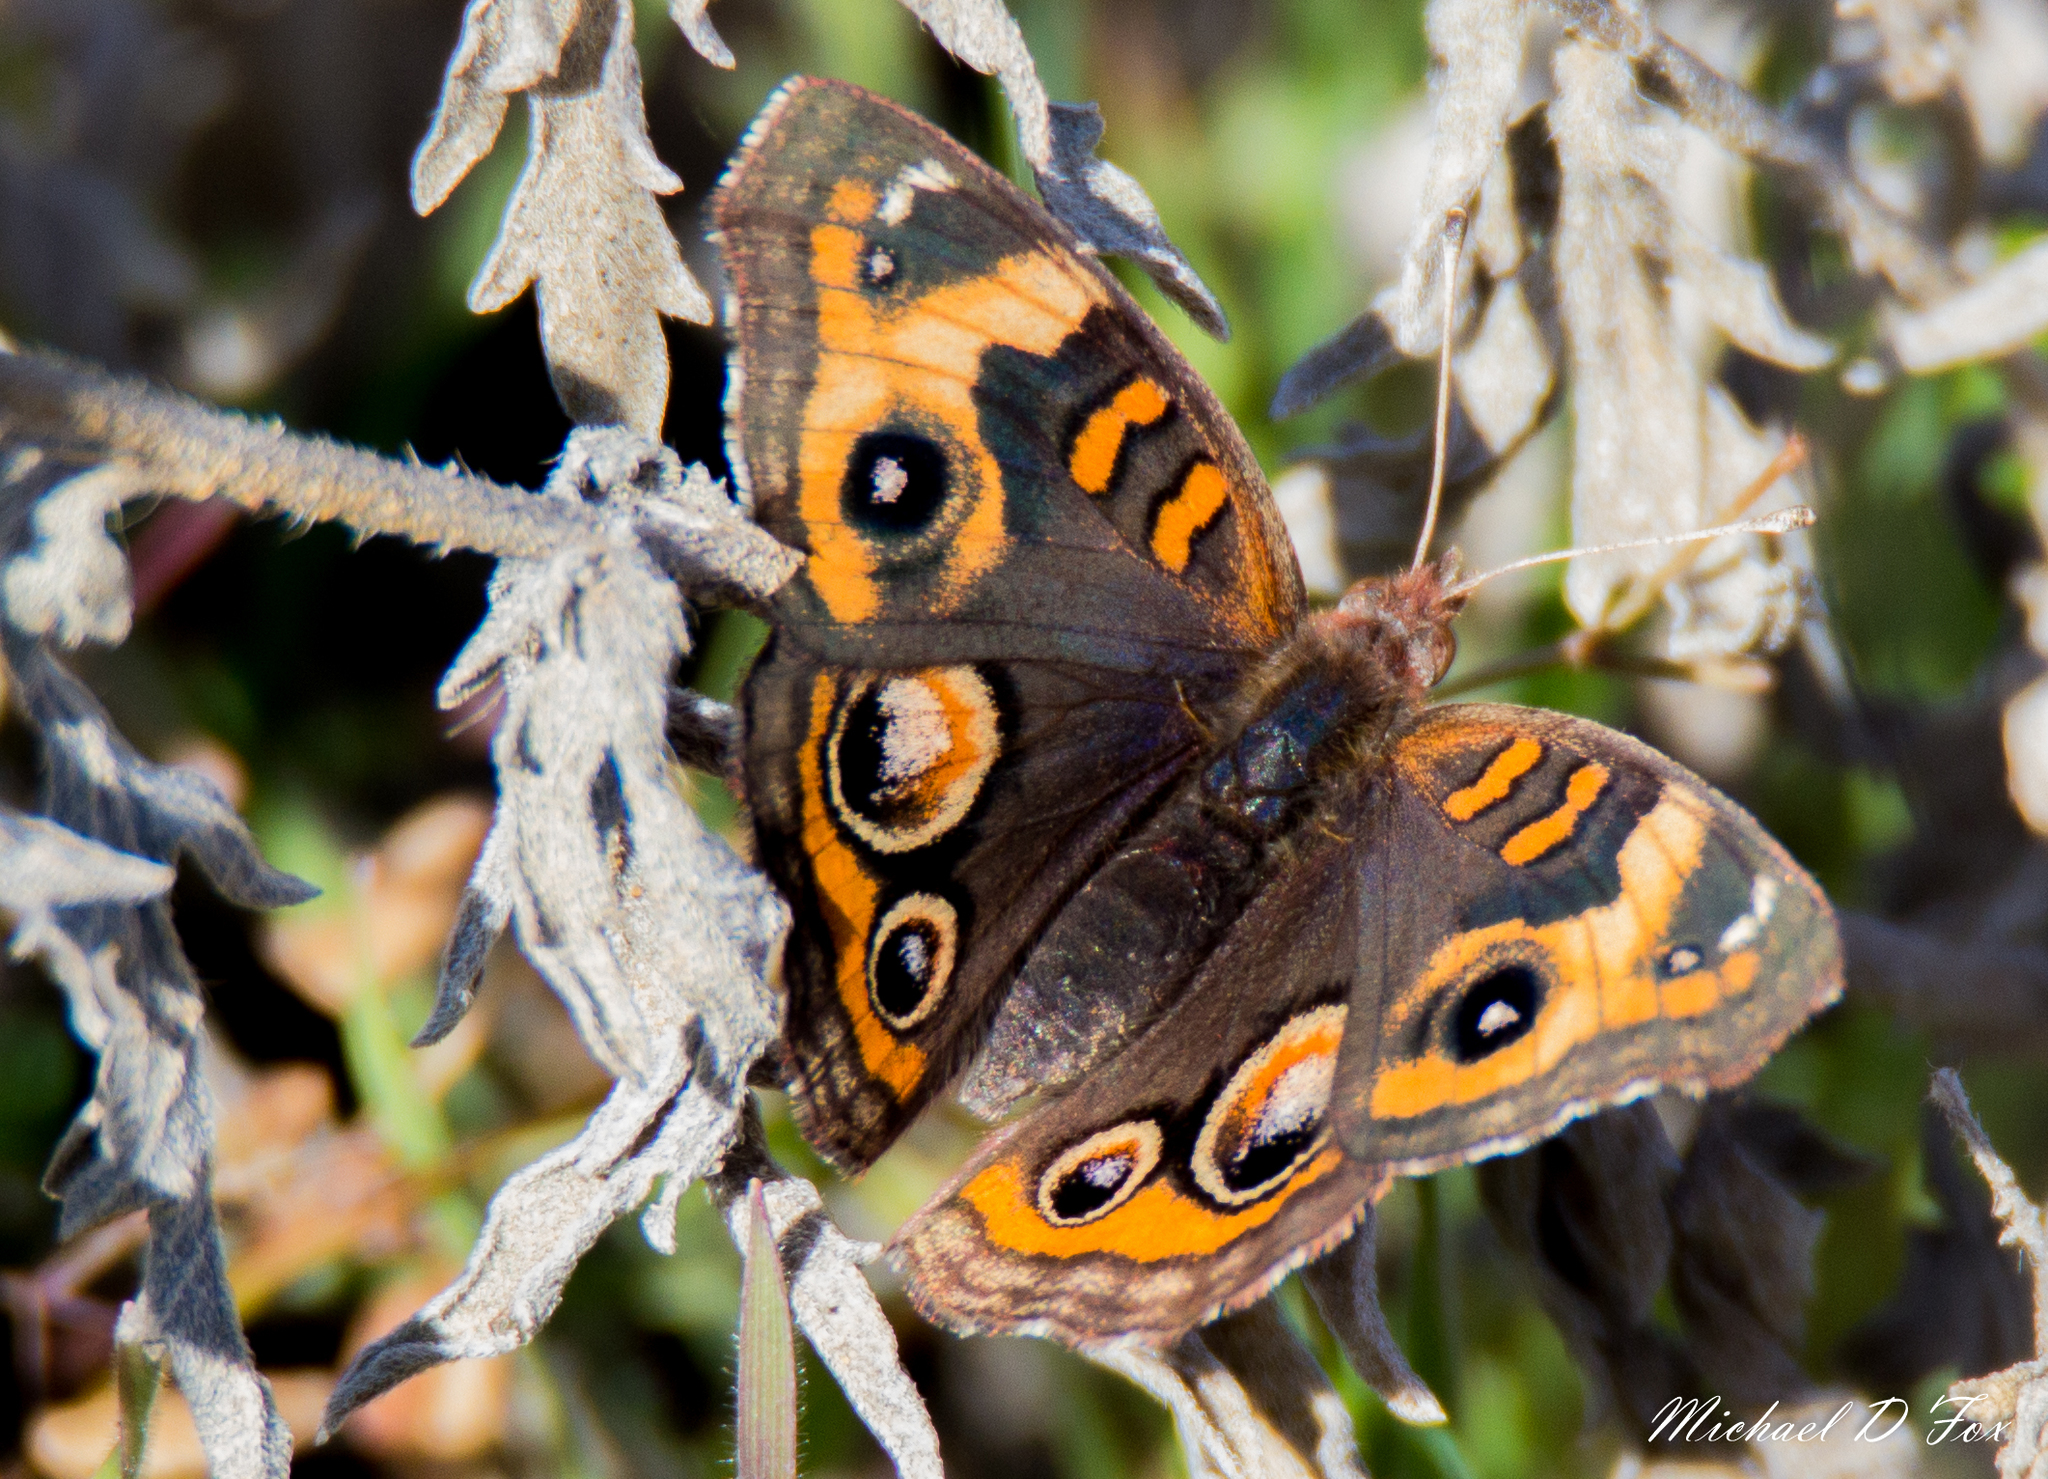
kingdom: Animalia
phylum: Arthropoda
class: Insecta
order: Lepidoptera
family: Nymphalidae
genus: Junonia
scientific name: Junonia coenia
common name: Common buckeye
